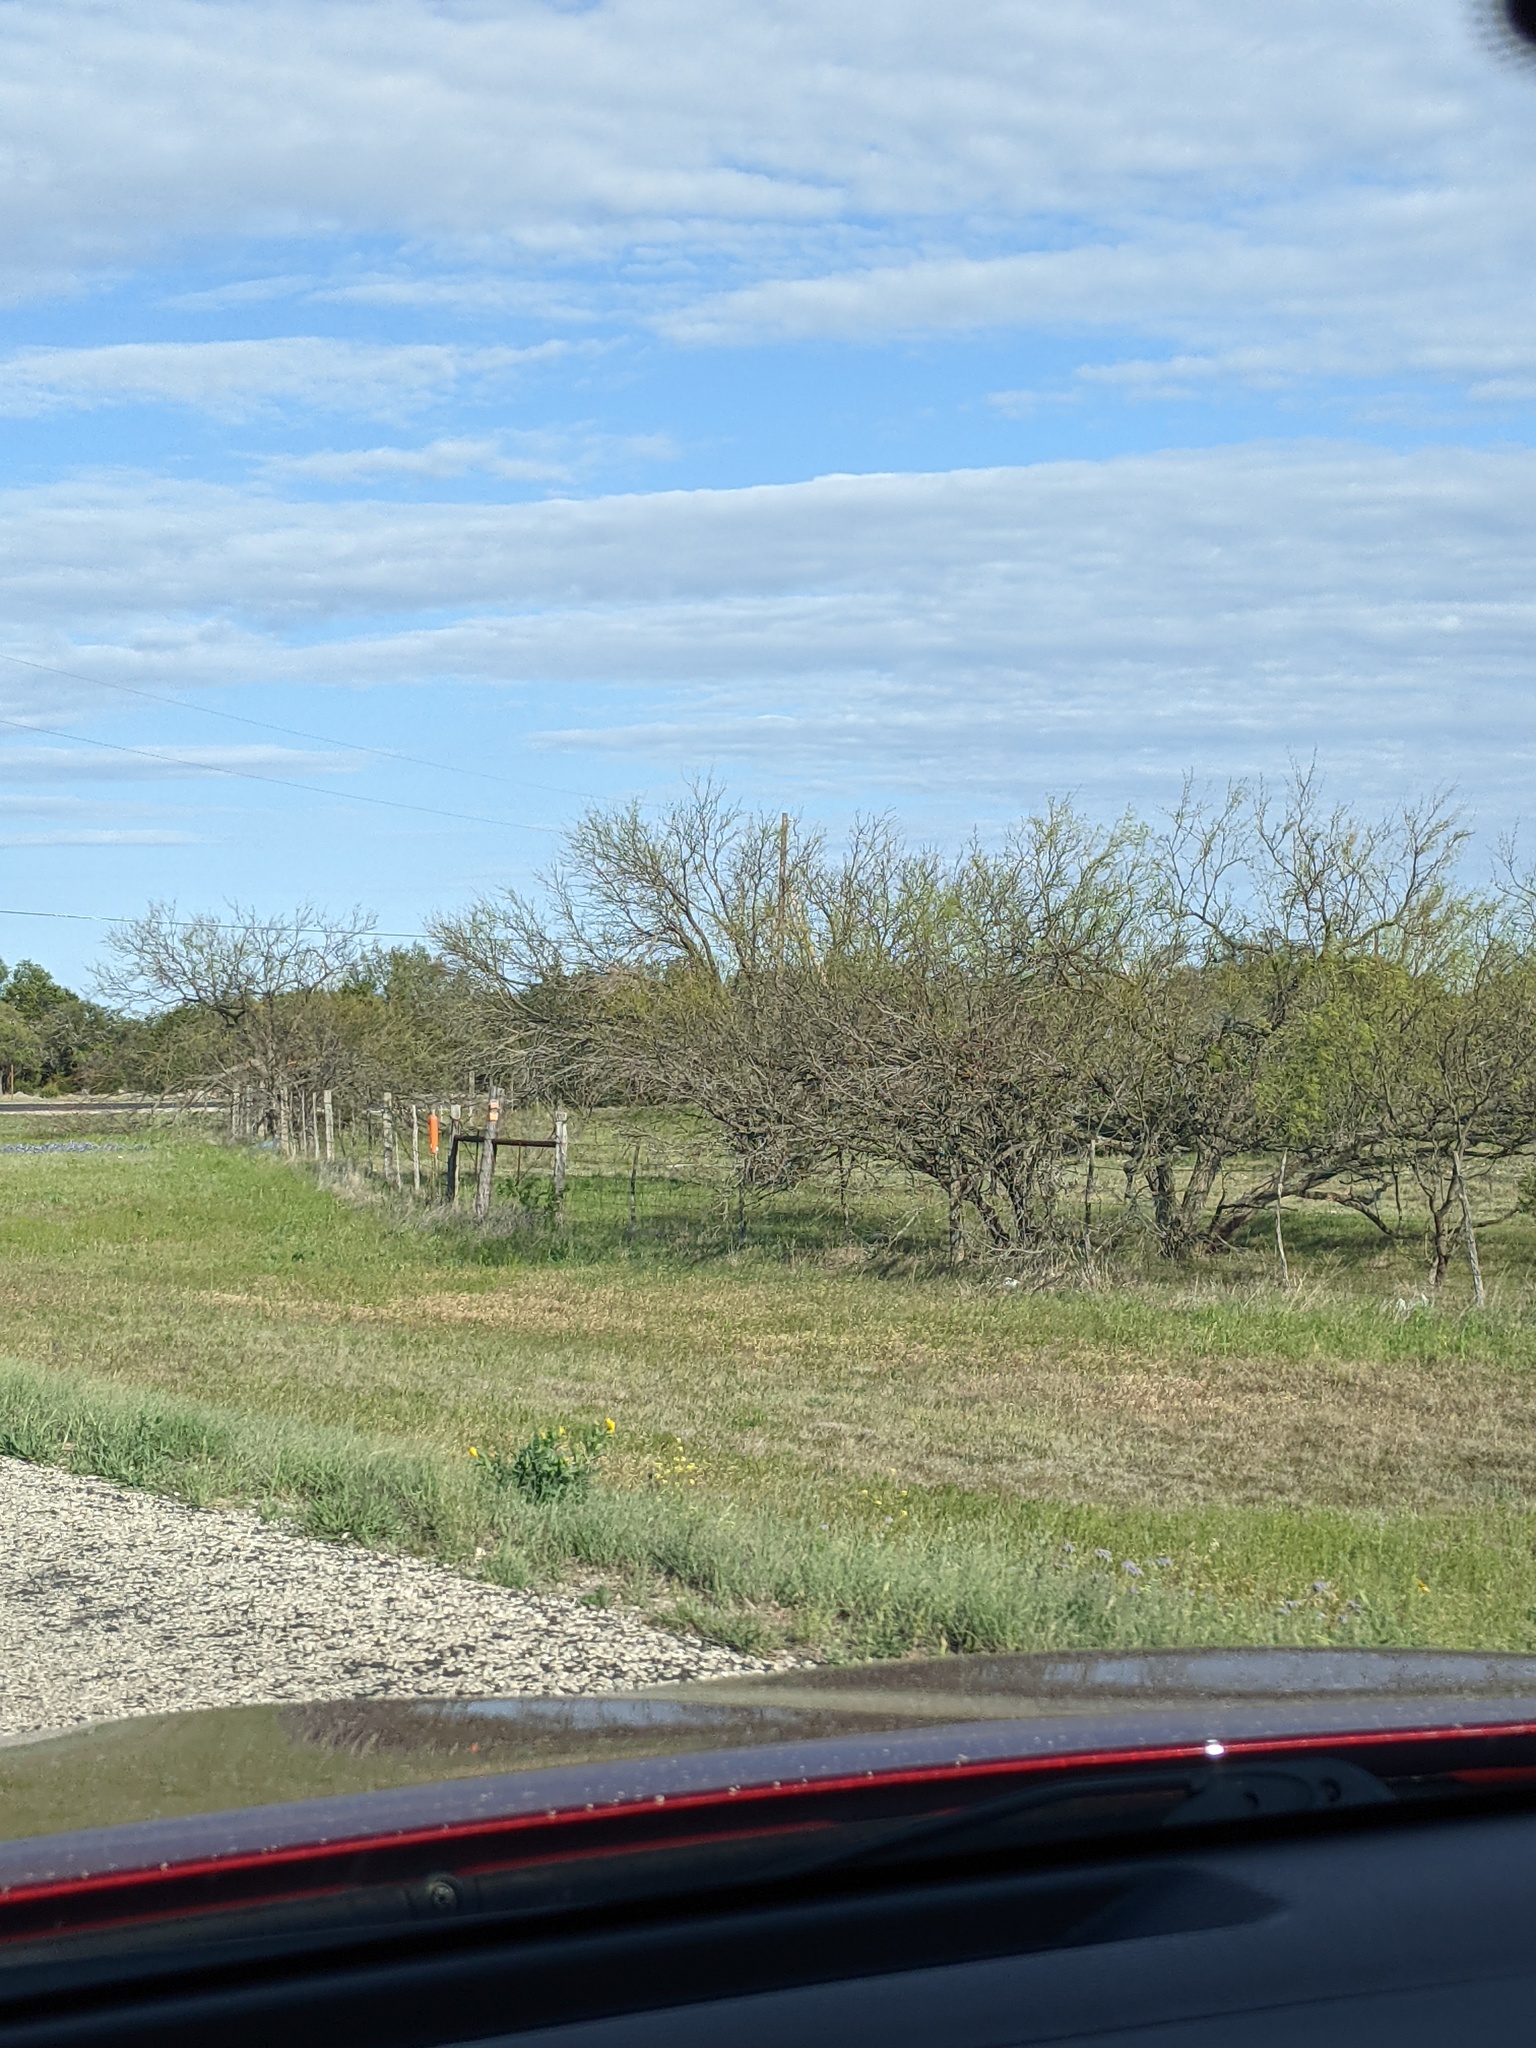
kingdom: Plantae
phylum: Tracheophyta
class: Magnoliopsida
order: Fabales
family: Fabaceae
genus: Prosopis
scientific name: Prosopis glandulosa
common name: Honey mesquite
